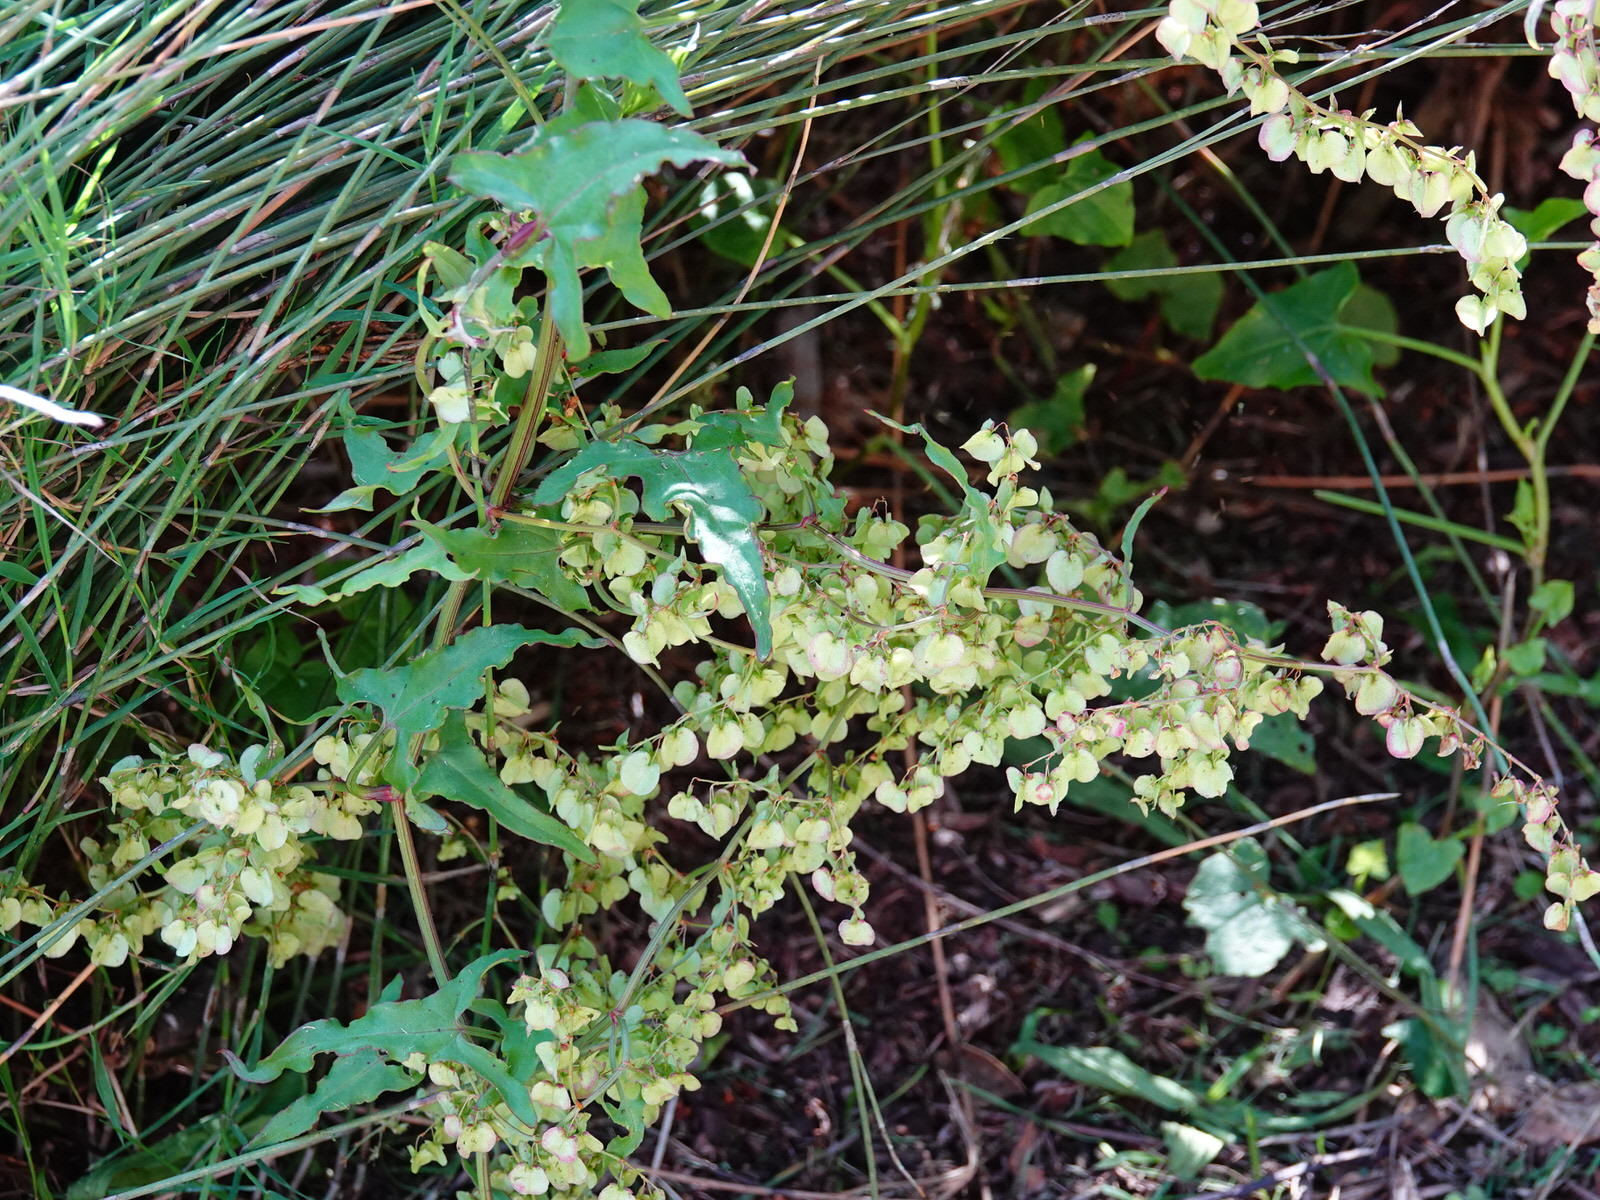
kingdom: Plantae
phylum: Tracheophyta
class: Magnoliopsida
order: Caryophyllales
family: Polygonaceae
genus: Rumex
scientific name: Rumex sagittatus
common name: Climbing dock
